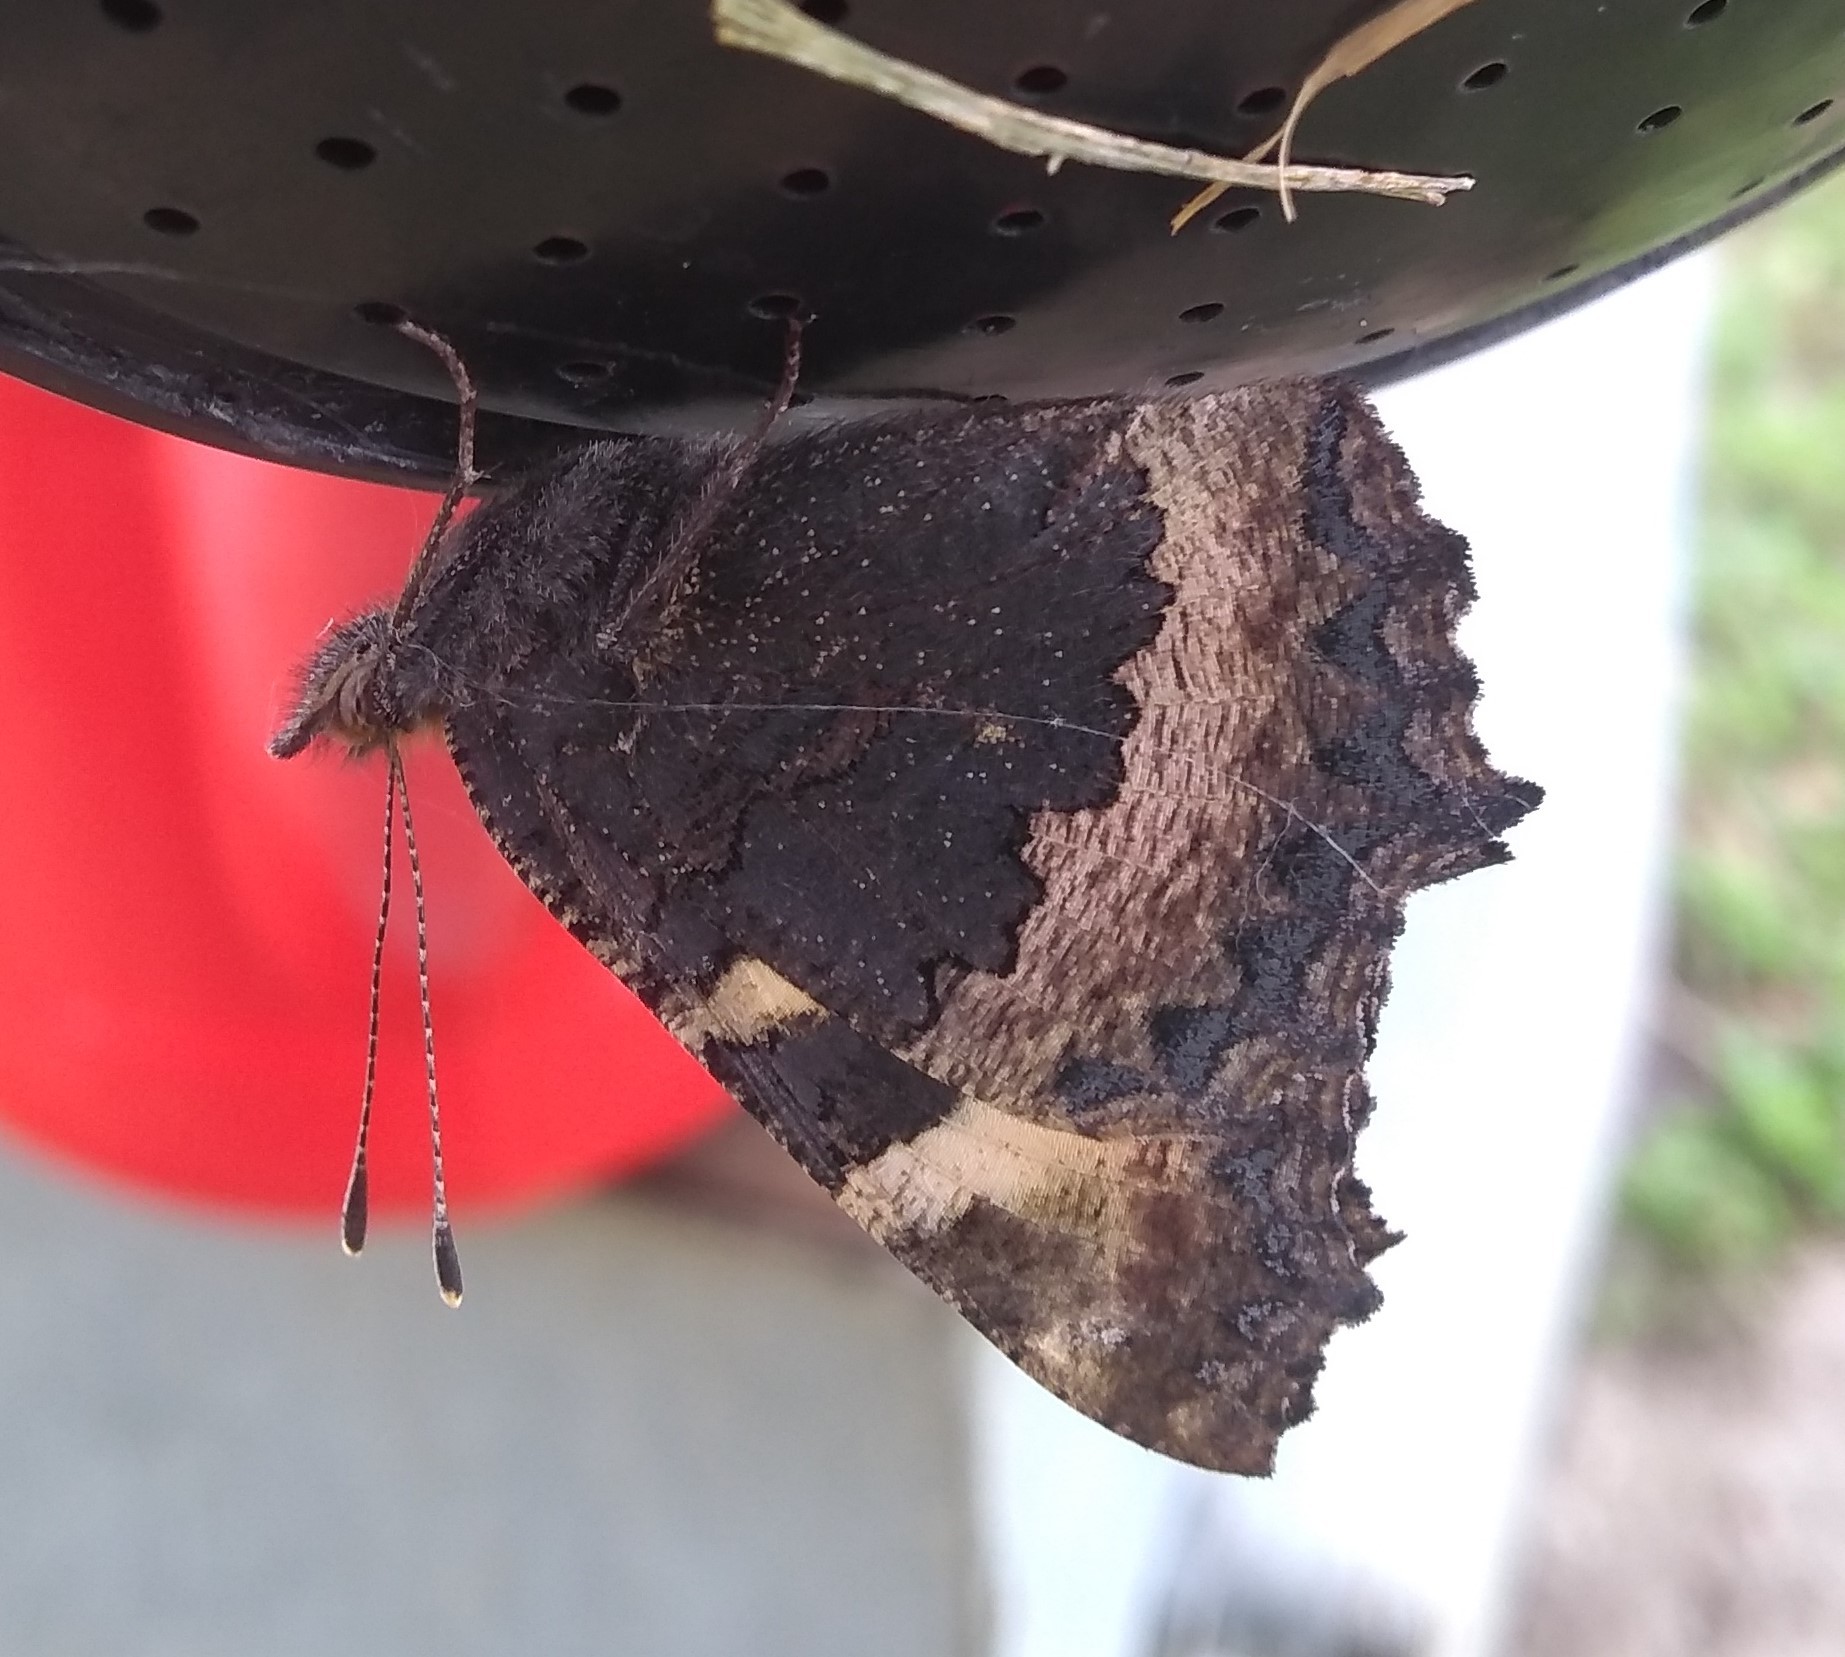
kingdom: Animalia
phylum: Arthropoda
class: Insecta
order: Lepidoptera
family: Nymphalidae
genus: Aglais
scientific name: Aglais urticae
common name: Small tortoiseshell
